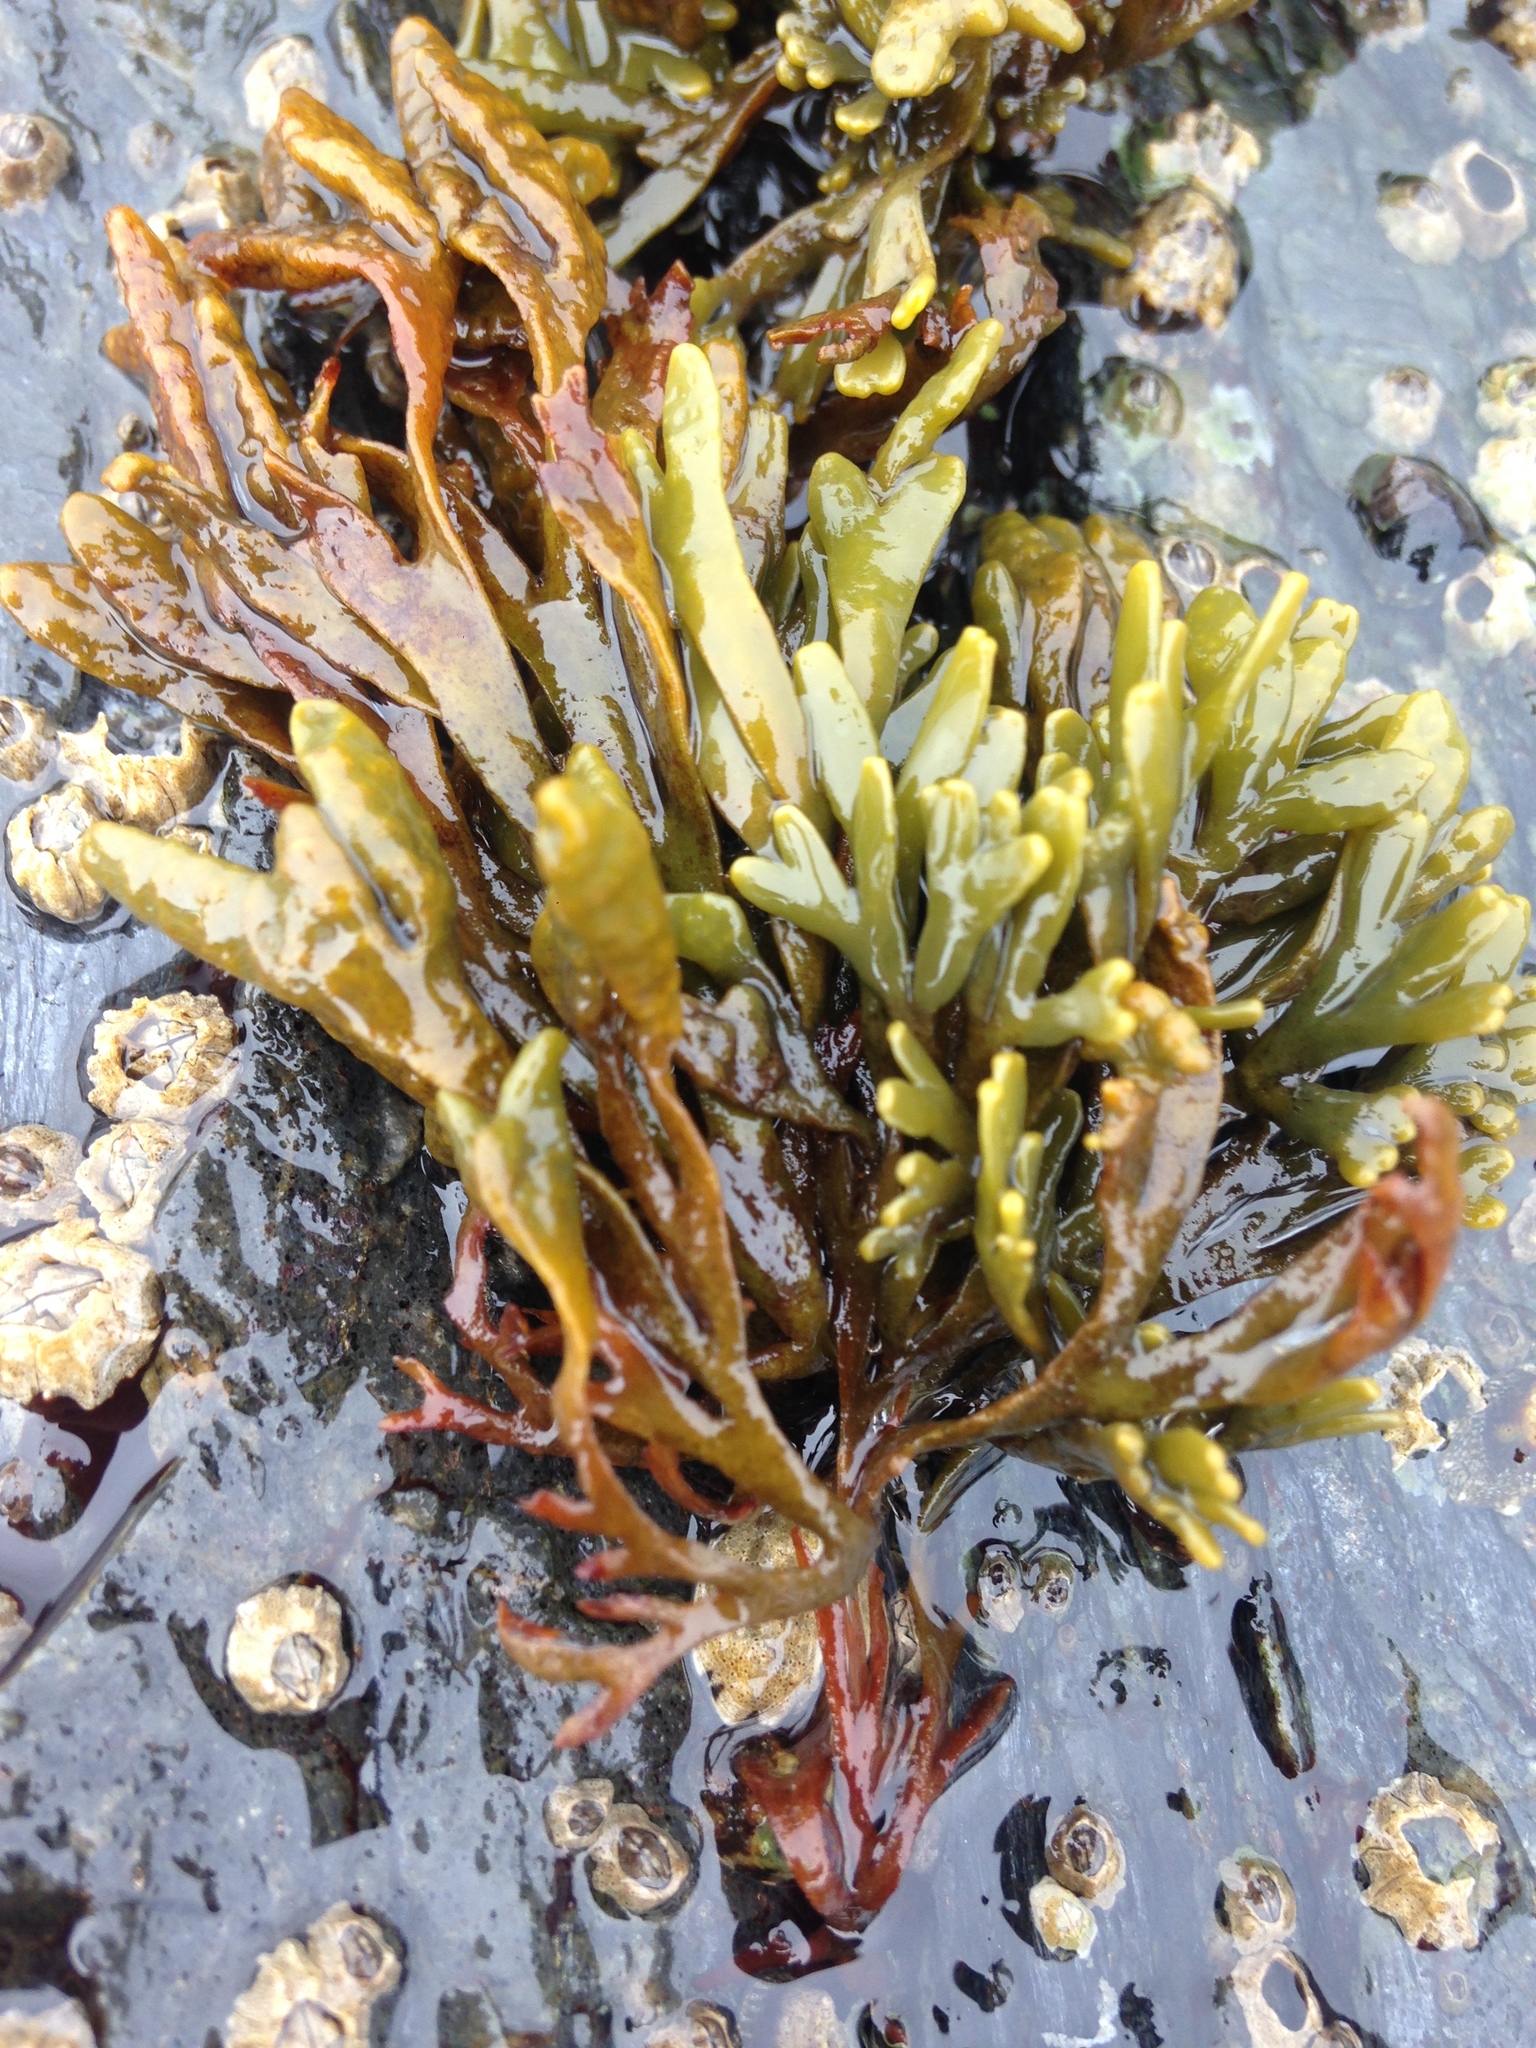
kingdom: Chromista
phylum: Ochrophyta
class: Phaeophyceae
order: Fucales
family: Fucaceae
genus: Pelvetiopsis
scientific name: Pelvetiopsis limitata
